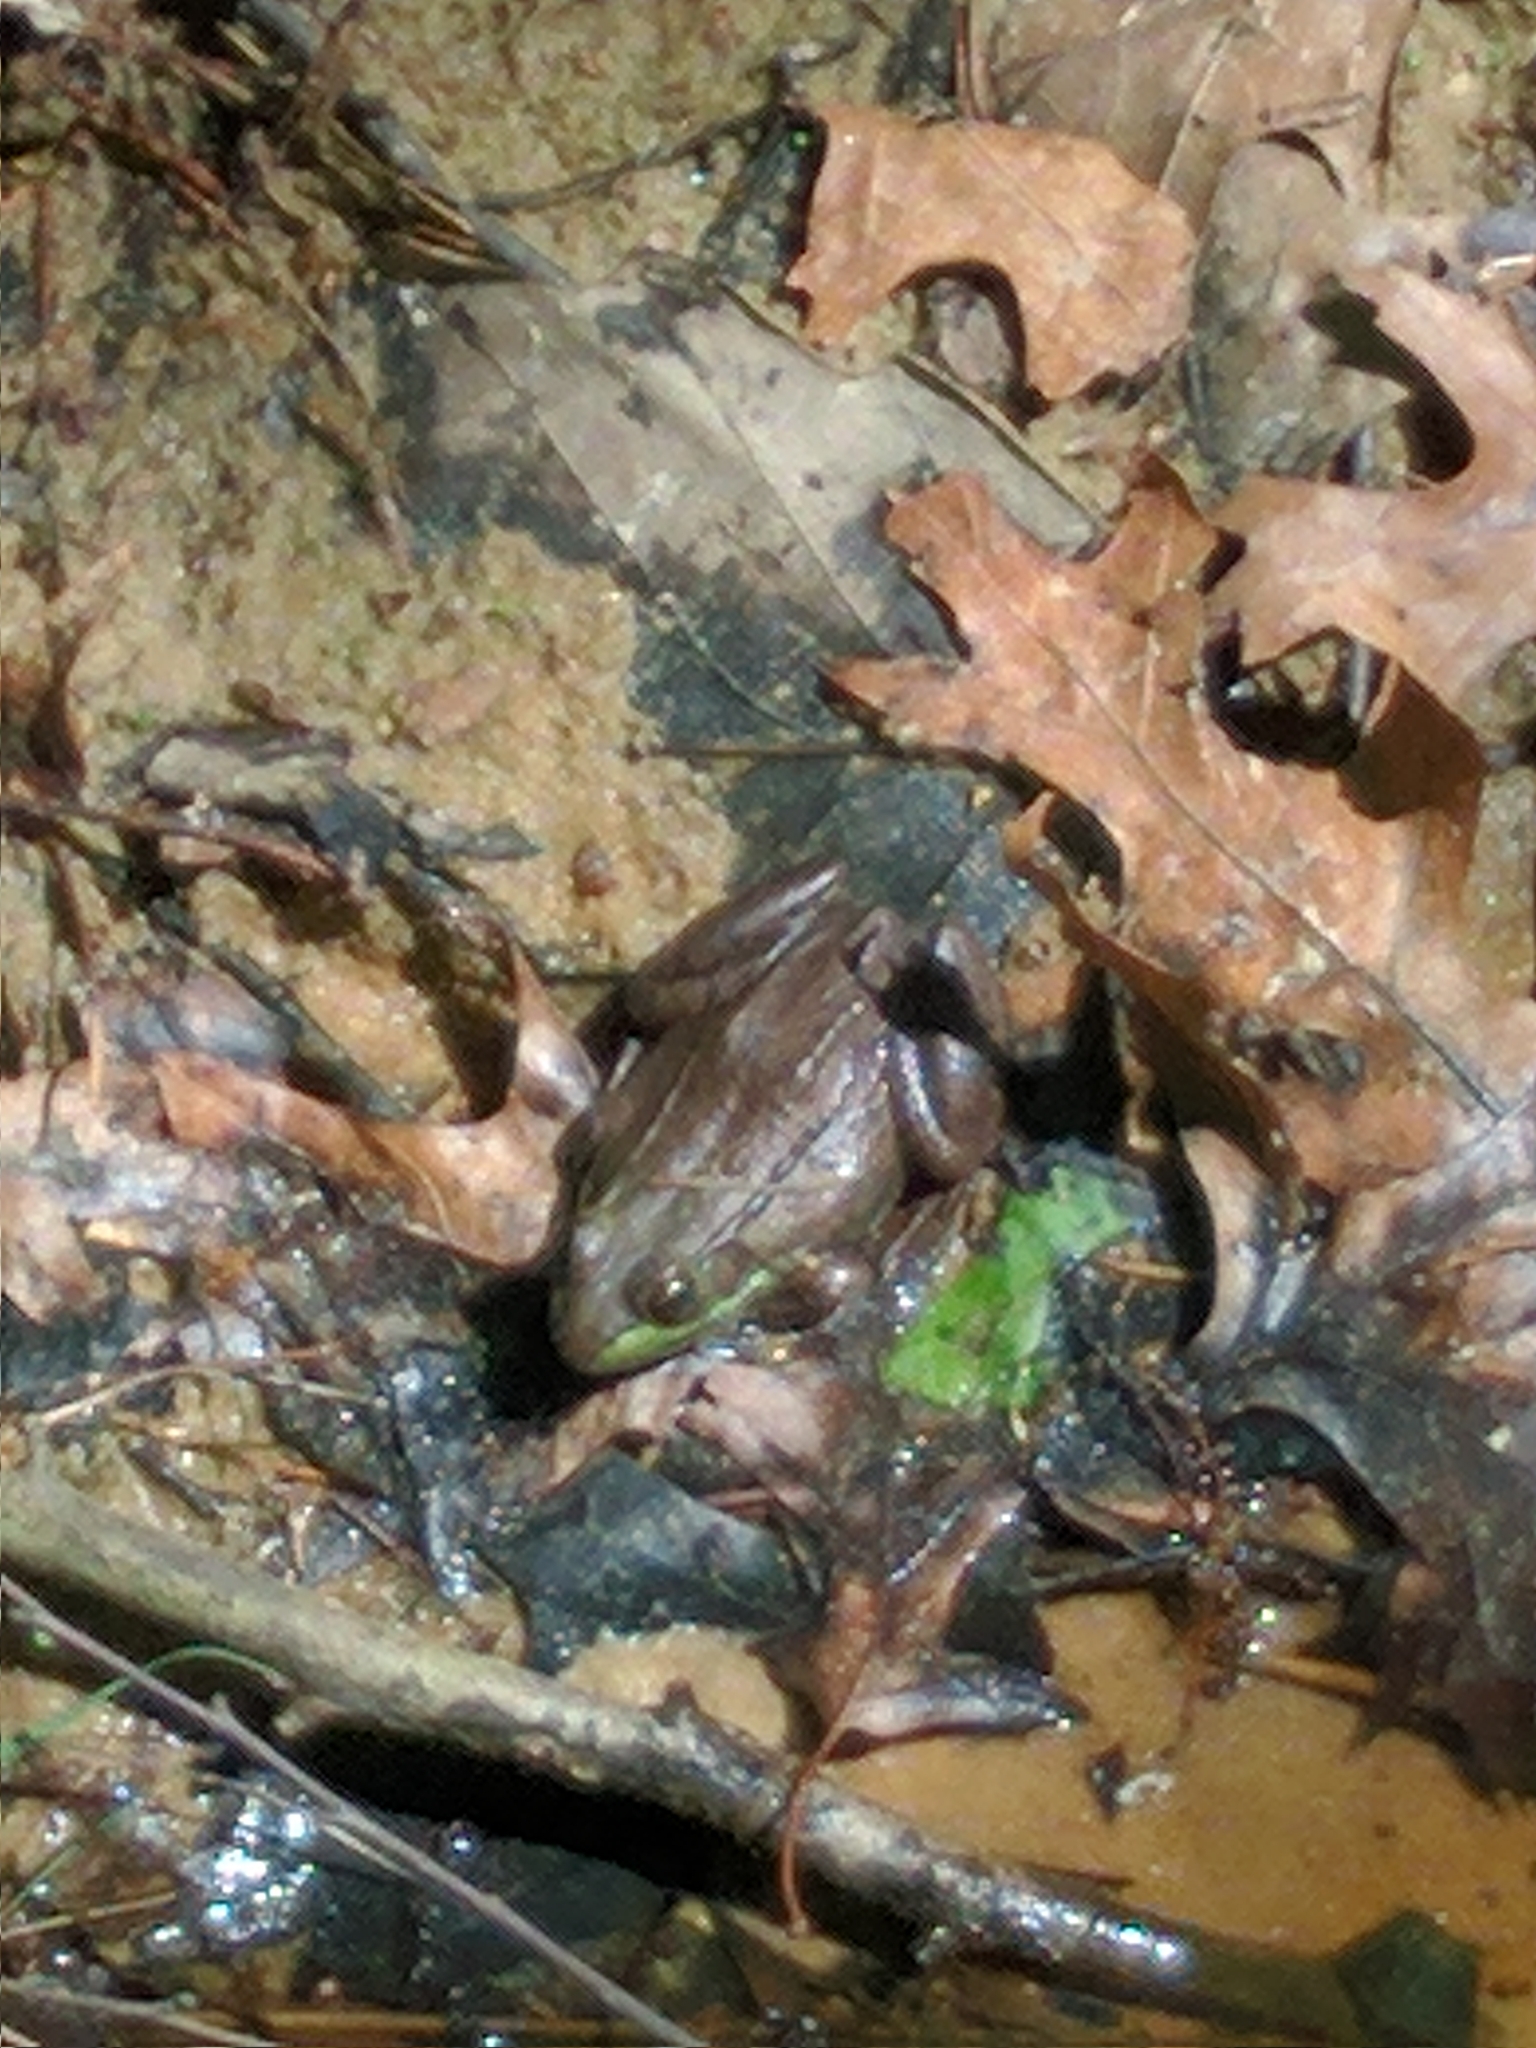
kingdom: Animalia
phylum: Chordata
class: Amphibia
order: Anura
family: Ranidae
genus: Lithobates
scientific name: Lithobates clamitans
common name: Green frog
